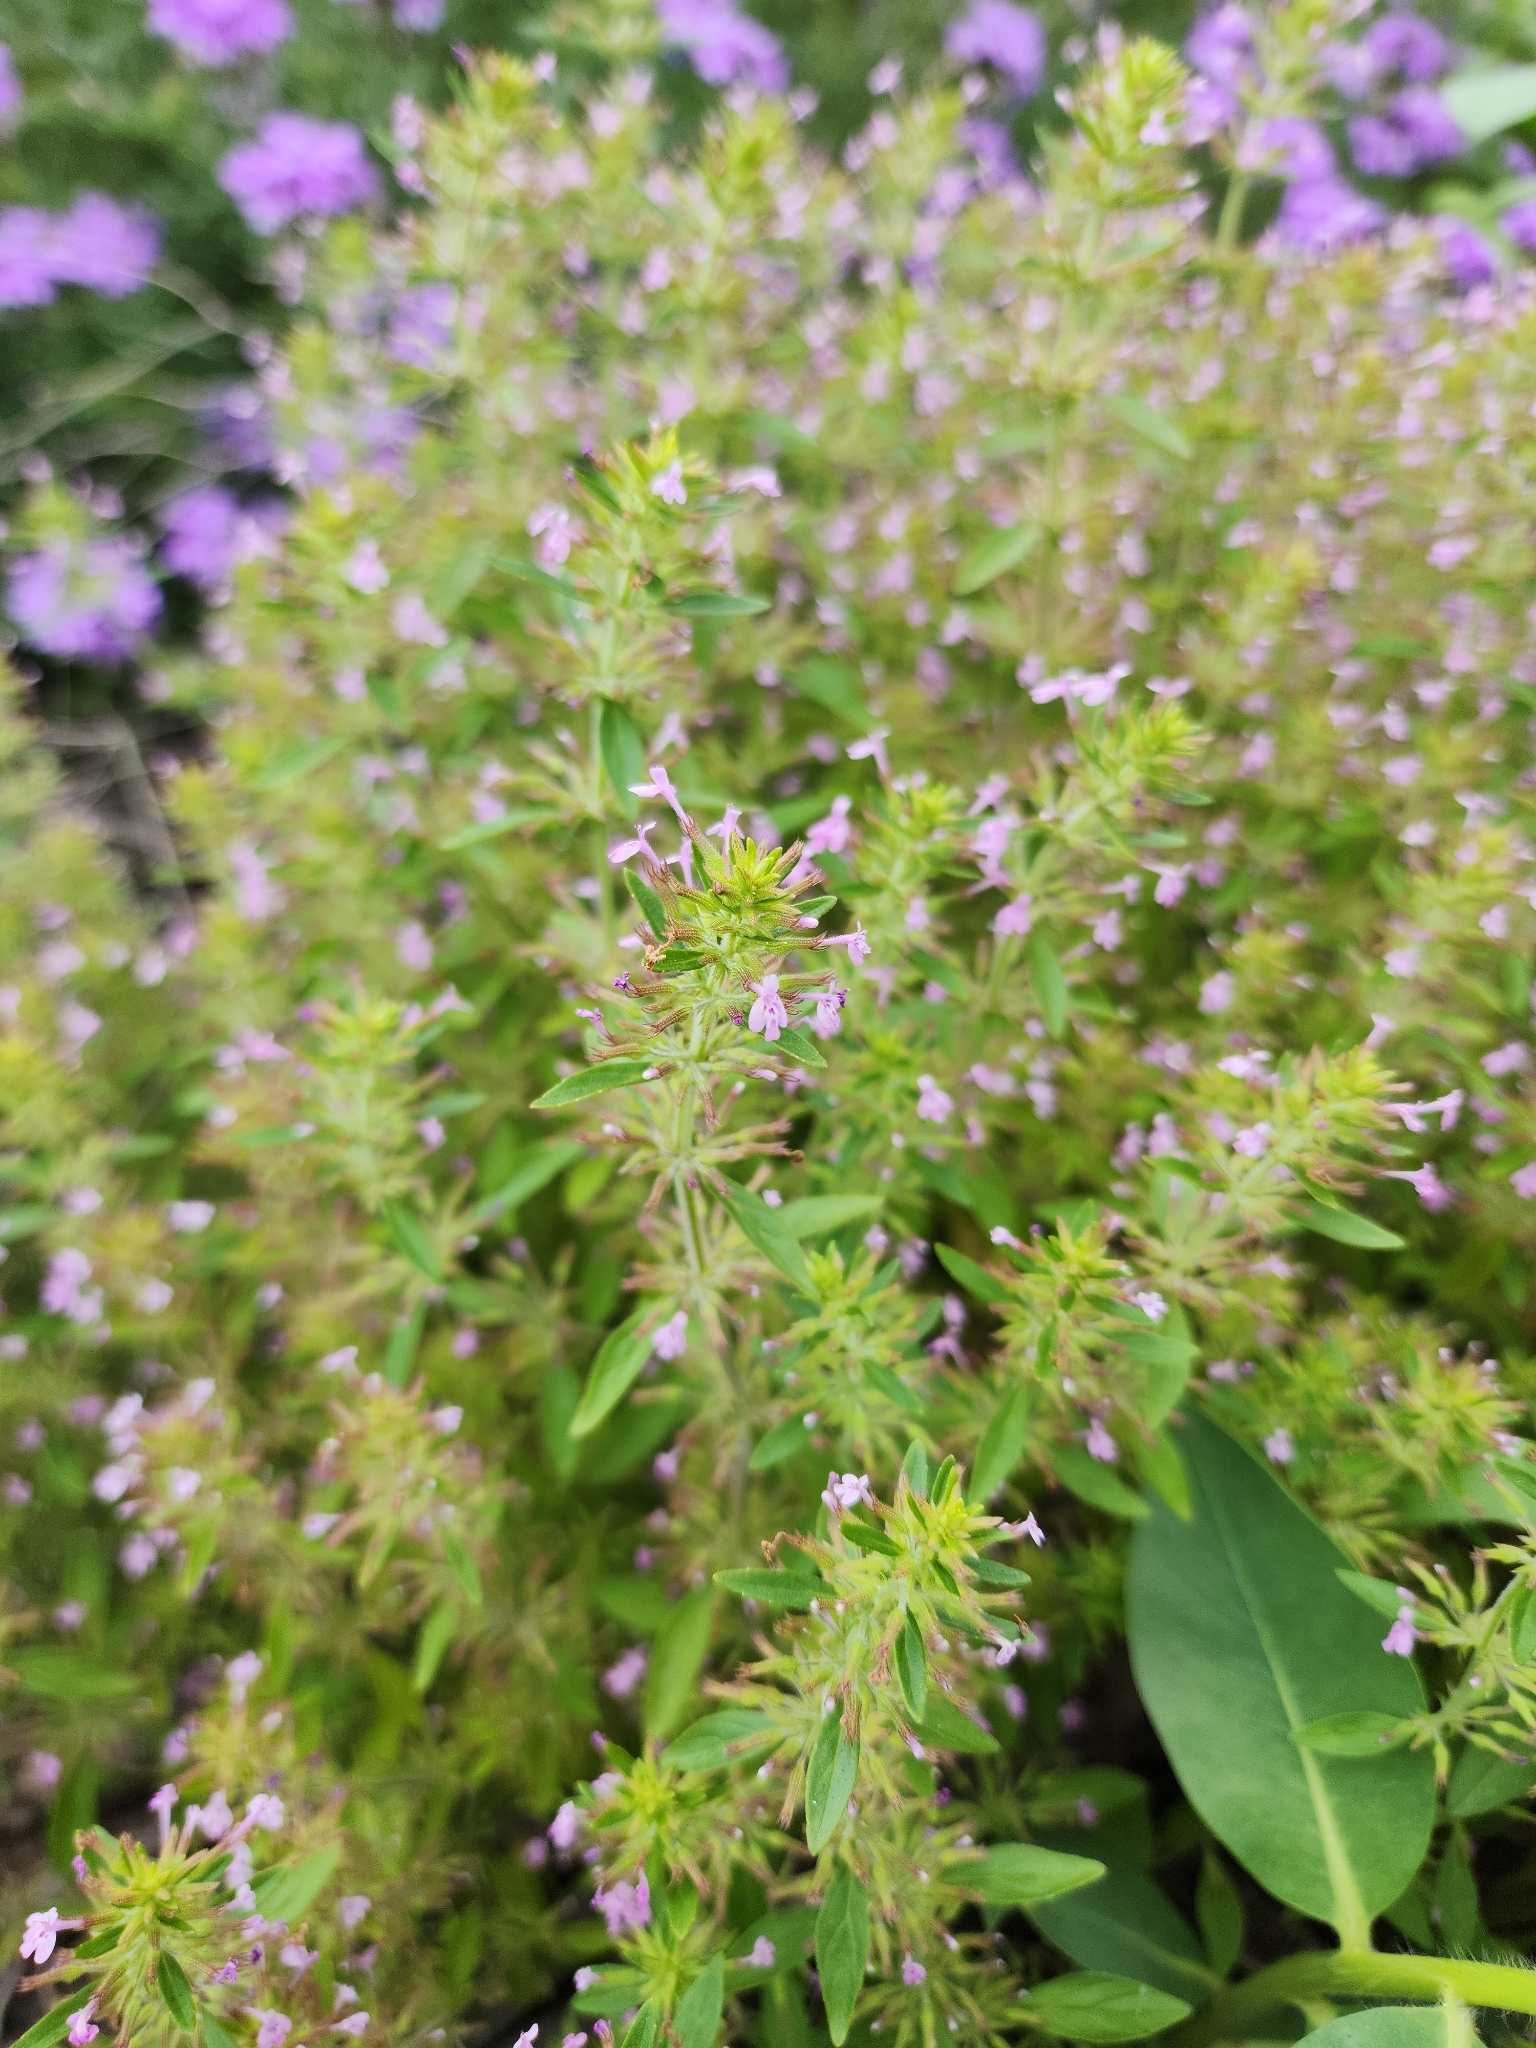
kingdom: Plantae
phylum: Tracheophyta
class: Magnoliopsida
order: Lamiales
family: Lamiaceae
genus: Hedeoma
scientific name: Hedeoma acinoides
